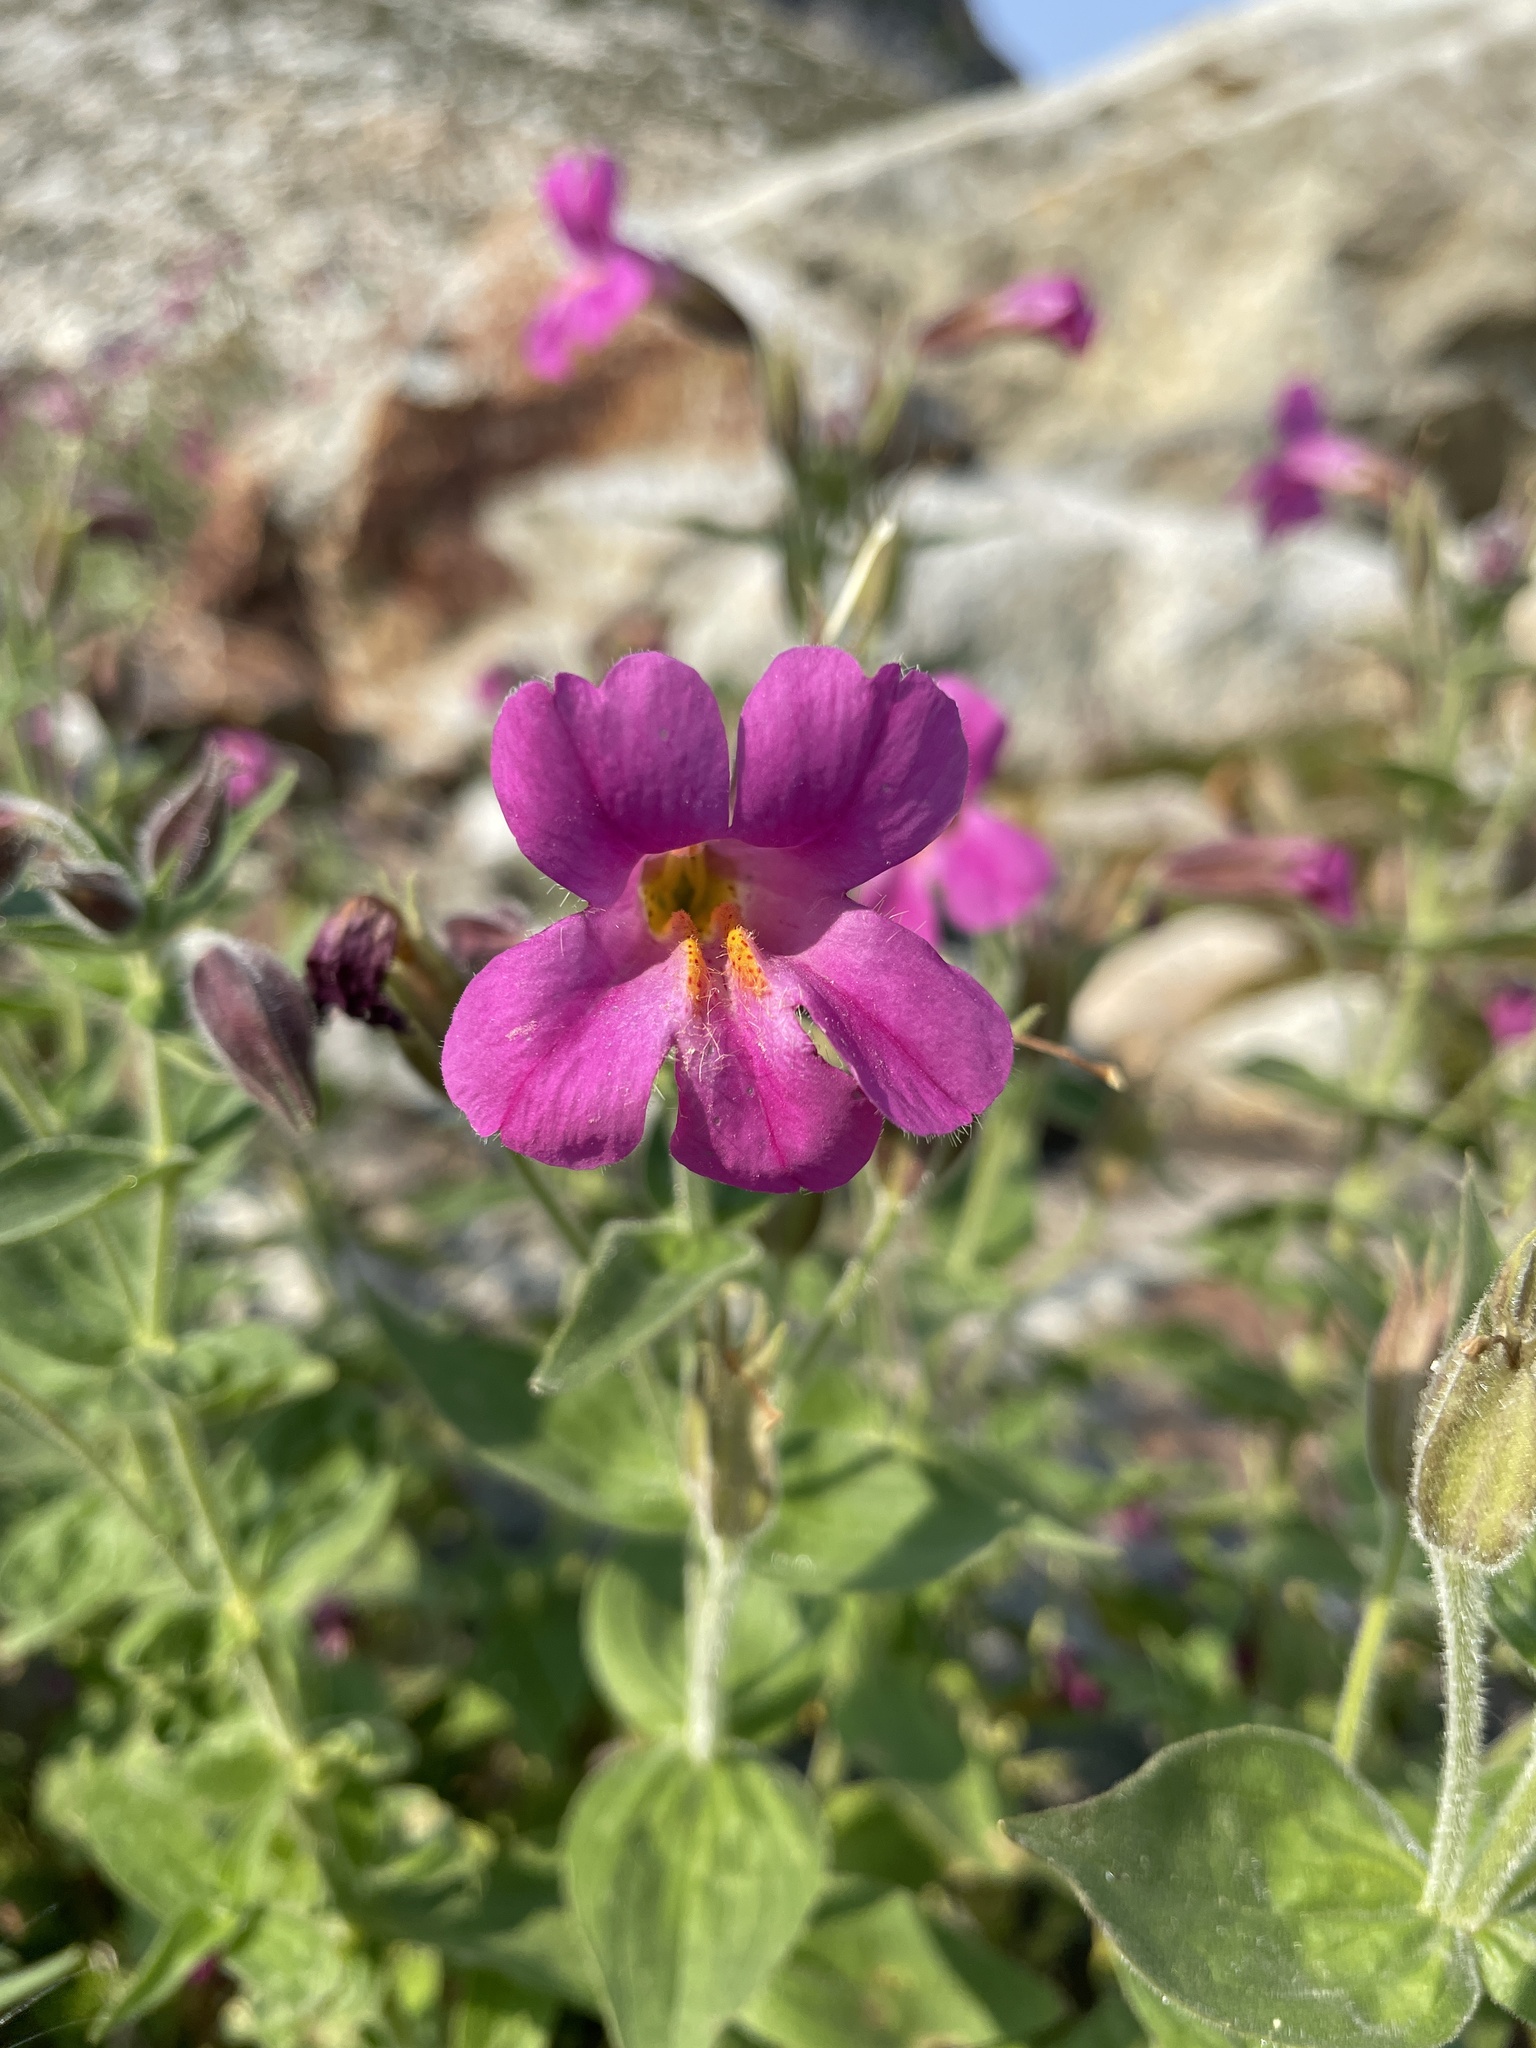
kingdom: Plantae
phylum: Tracheophyta
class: Magnoliopsida
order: Lamiales
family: Phrymaceae
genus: Erythranthe
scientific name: Erythranthe lewisii
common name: Lewis's monkey-flower
